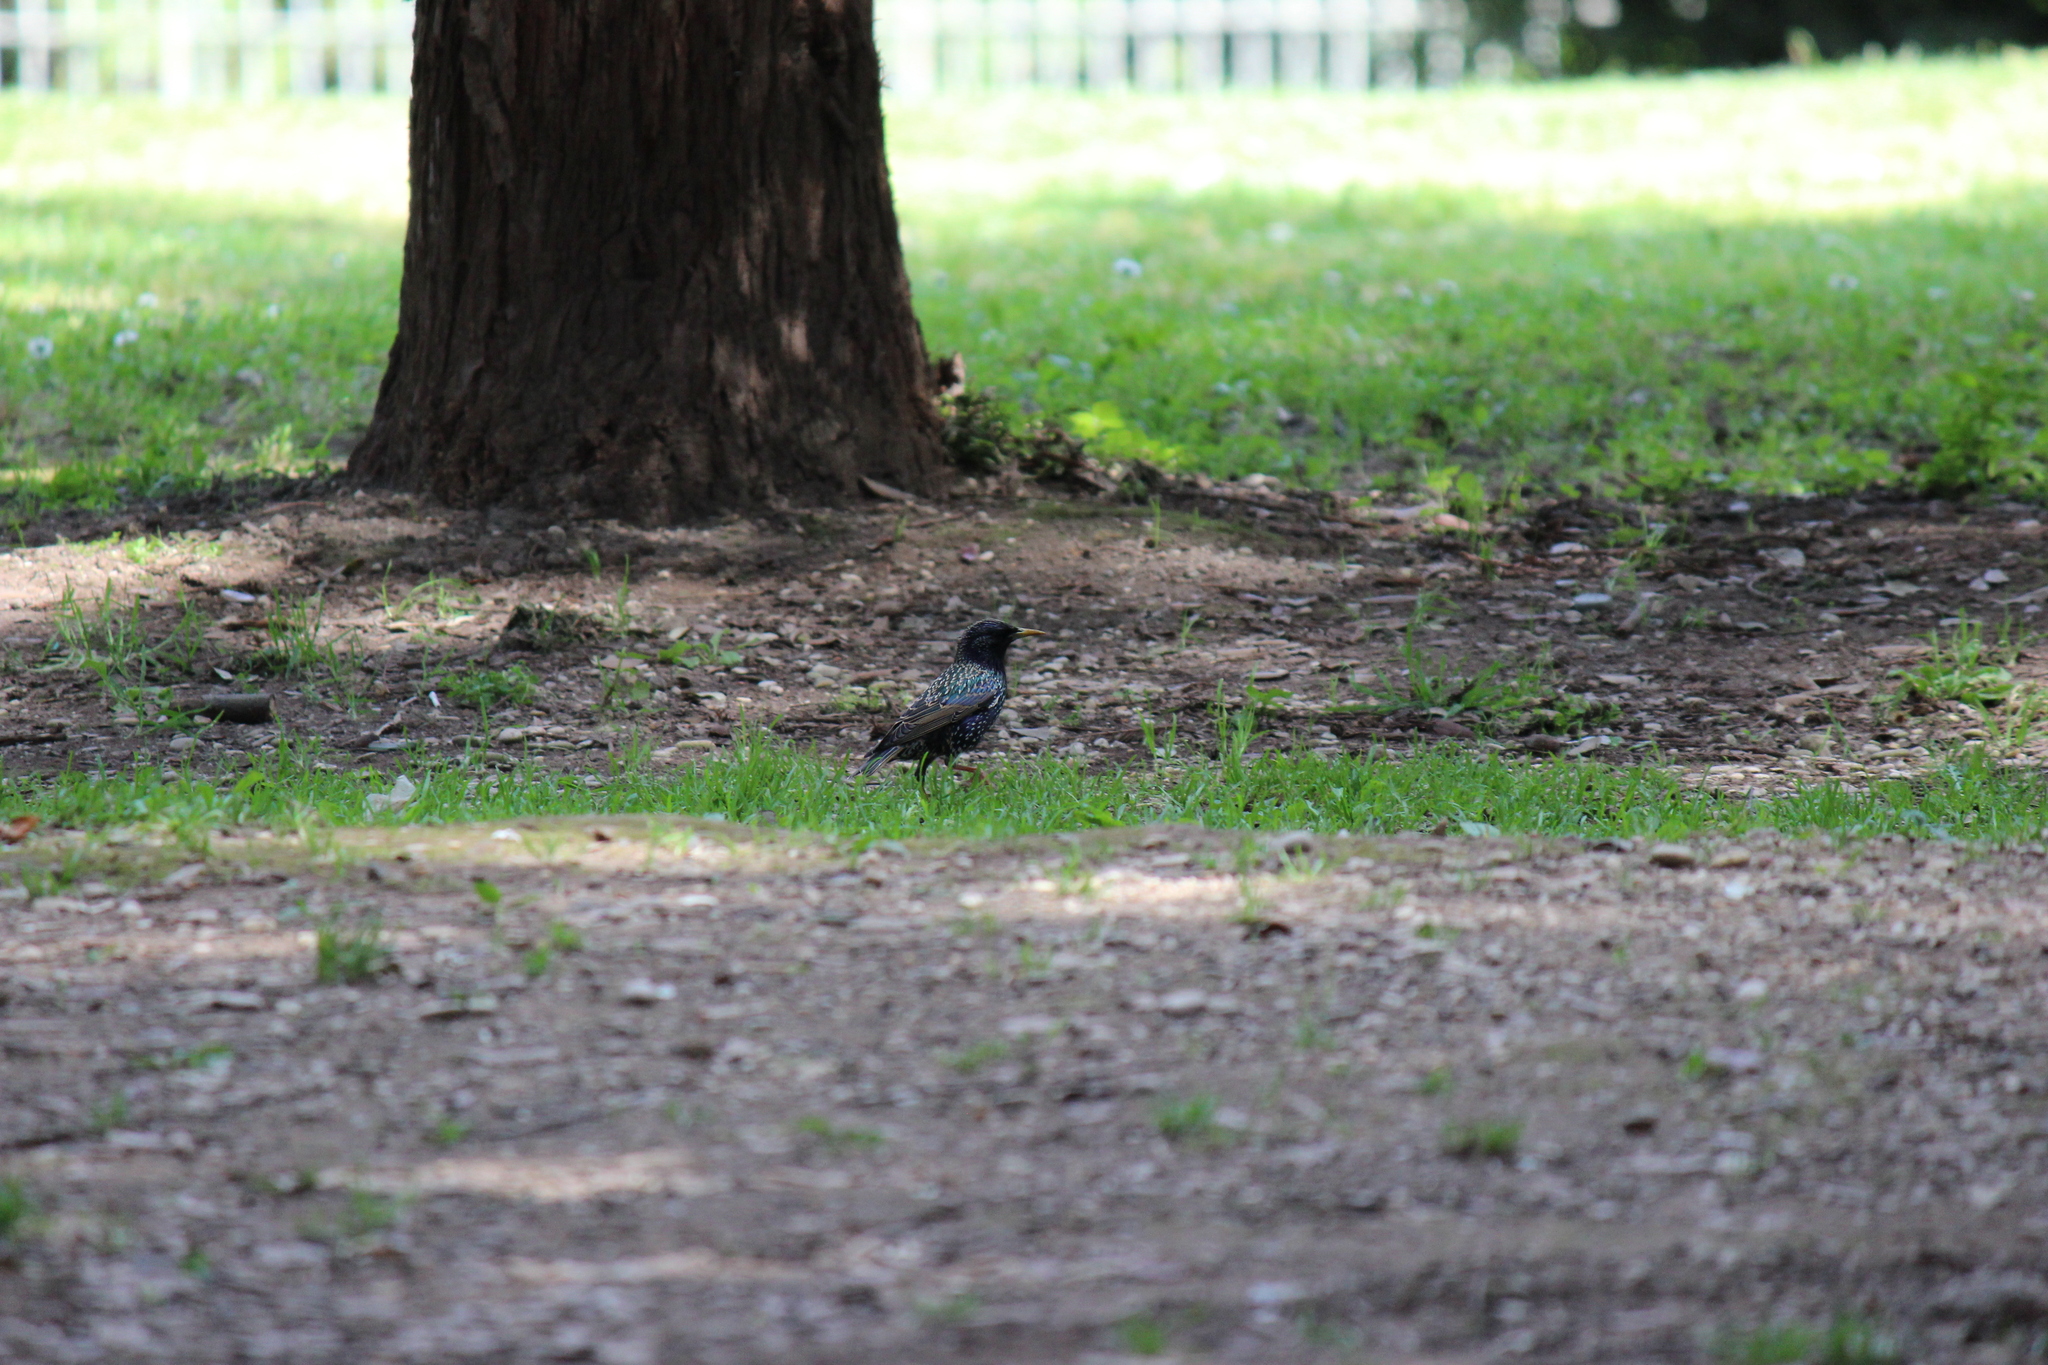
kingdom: Animalia
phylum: Chordata
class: Aves
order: Passeriformes
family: Sturnidae
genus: Sturnus
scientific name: Sturnus vulgaris
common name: Common starling
